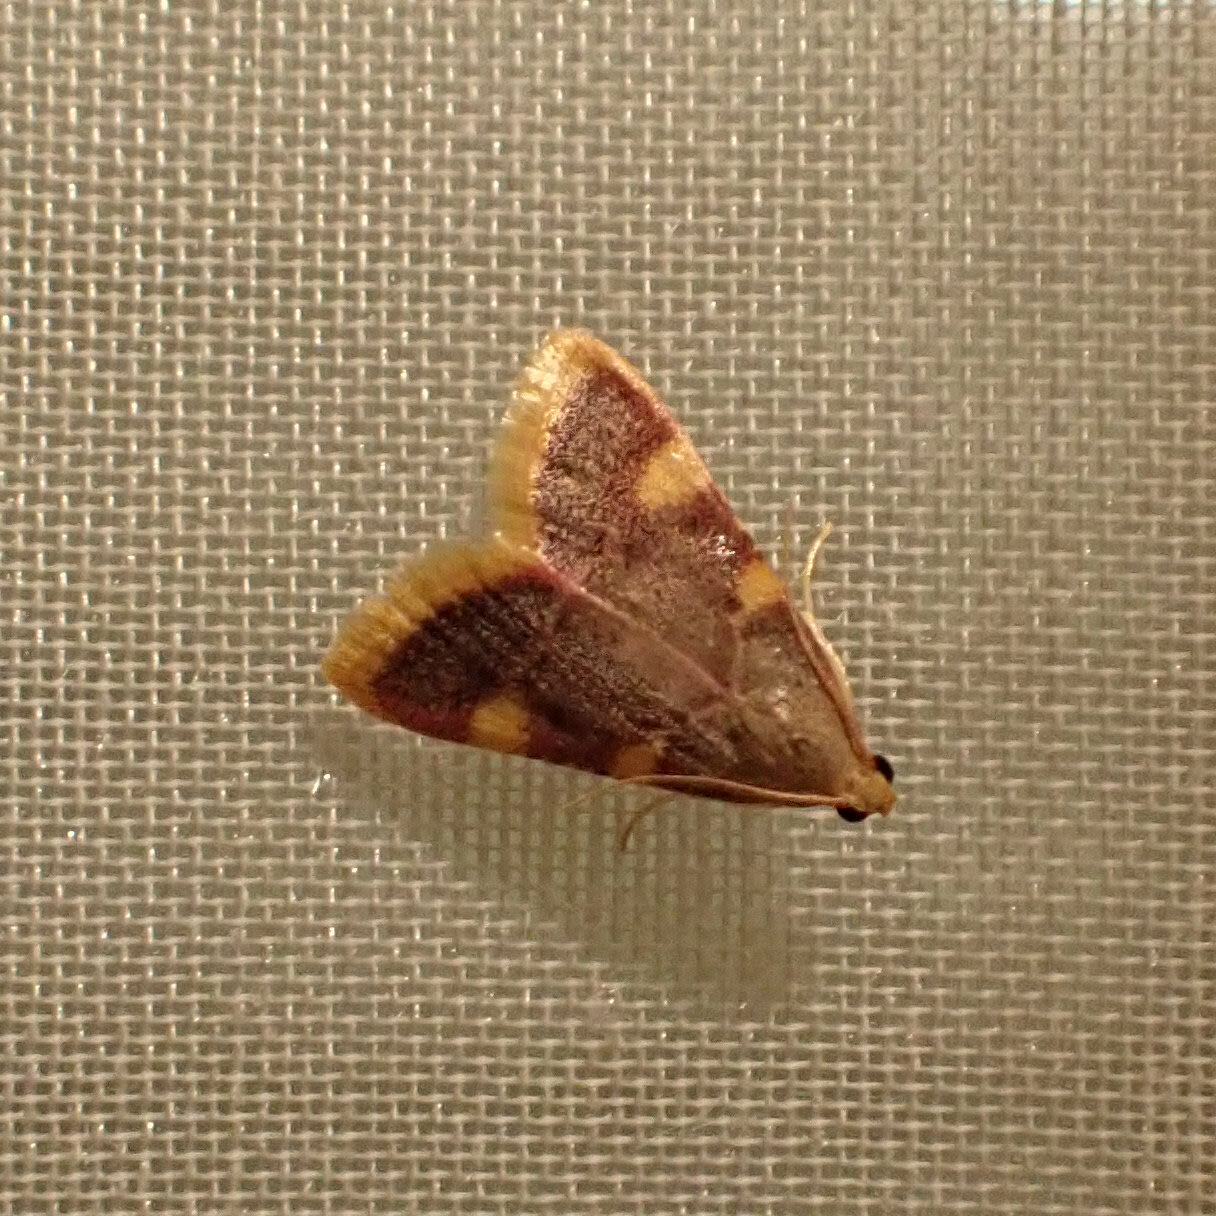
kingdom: Animalia
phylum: Arthropoda
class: Insecta
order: Lepidoptera
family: Pyralidae
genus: Hypsopygia
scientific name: Hypsopygia costalis
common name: Gold triangle
